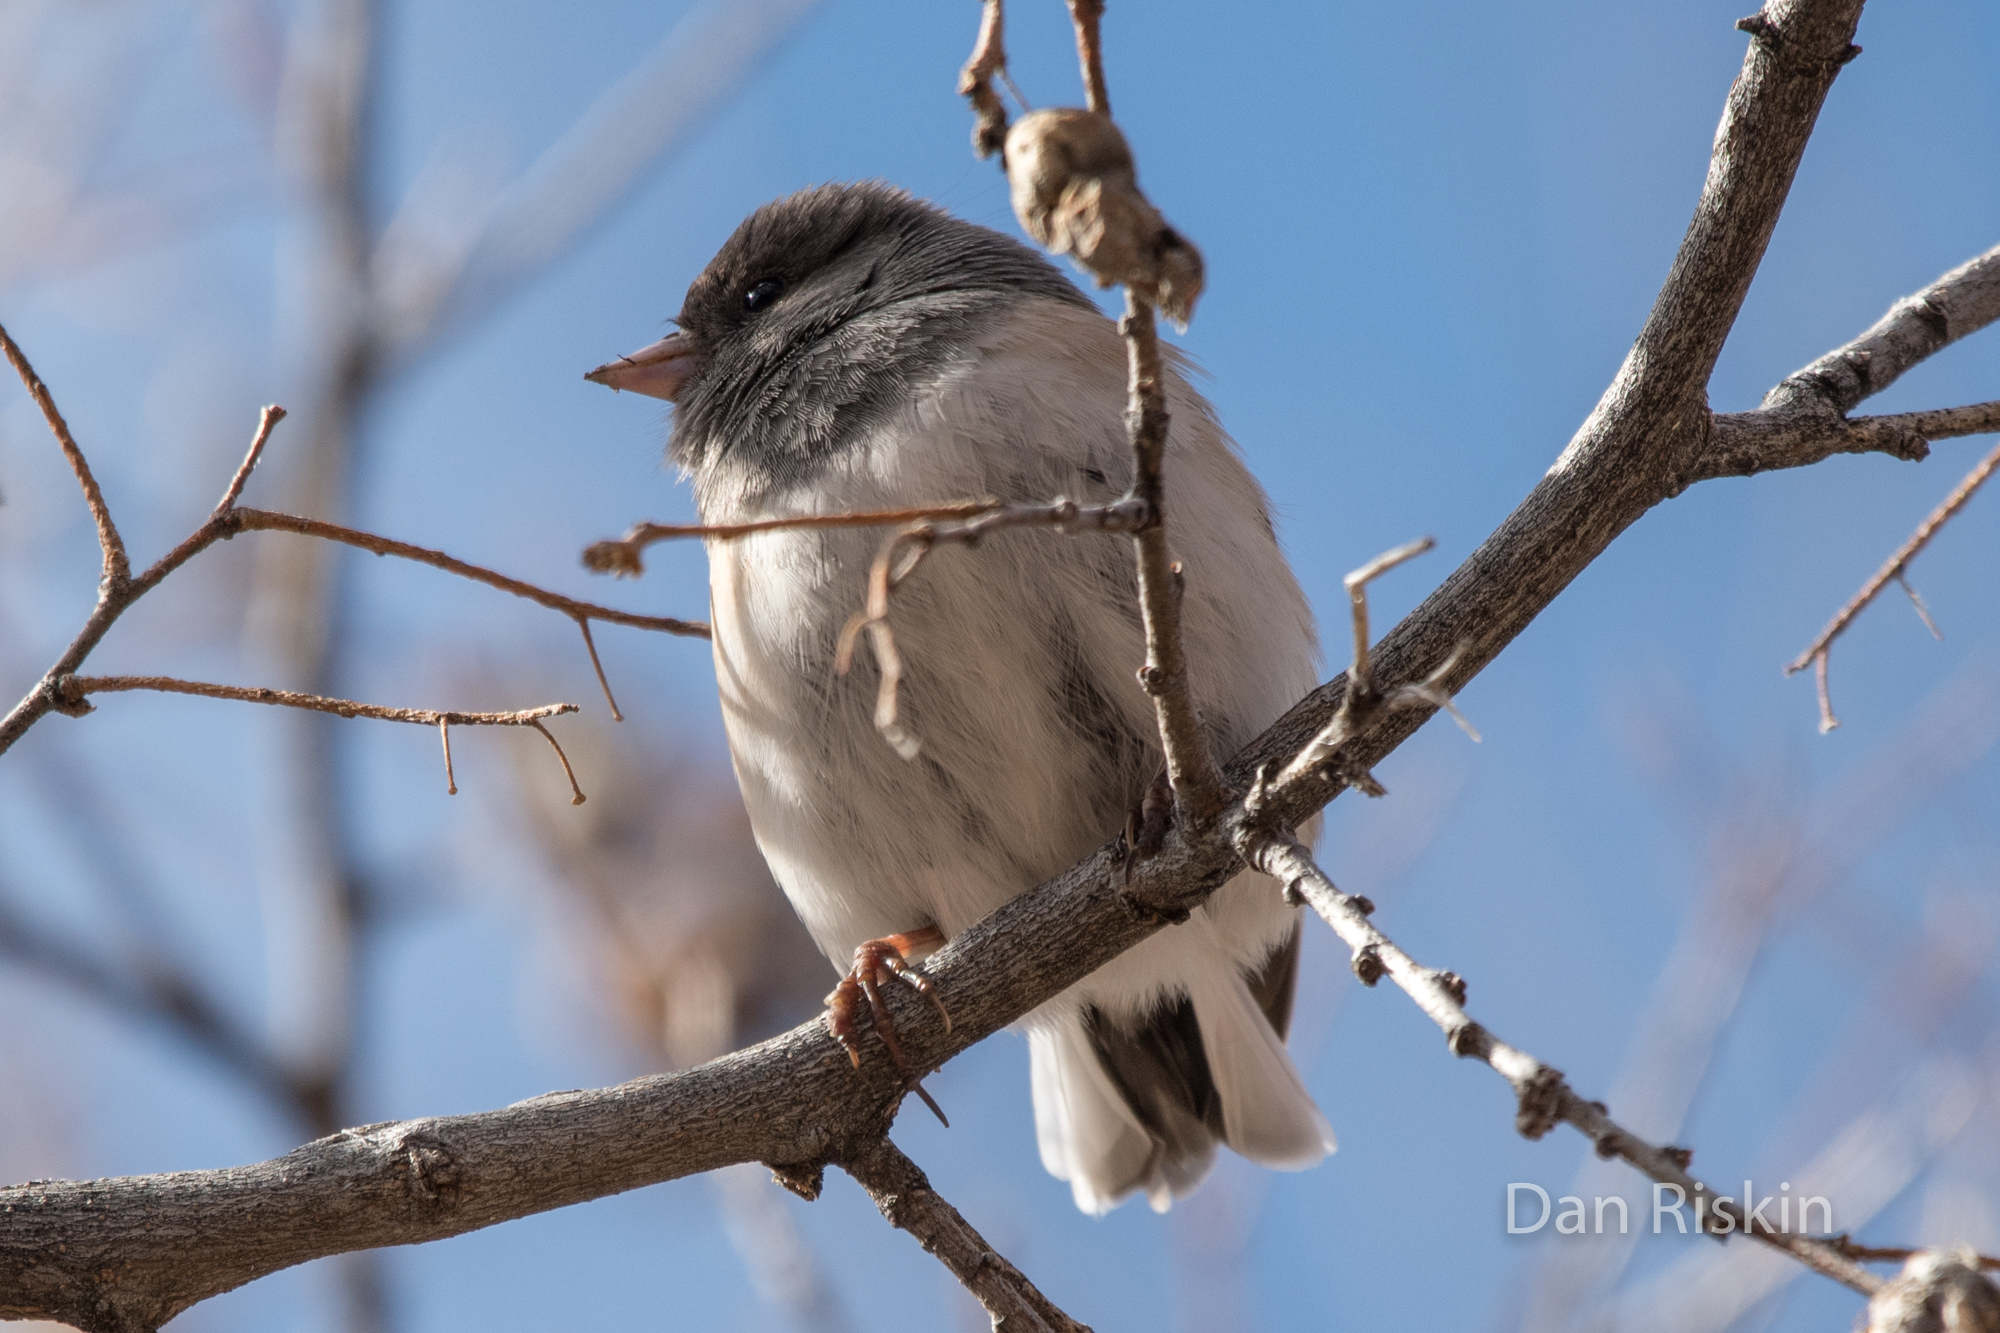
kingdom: Animalia
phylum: Chordata
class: Aves
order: Passeriformes
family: Passerellidae
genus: Junco
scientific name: Junco hyemalis
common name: Dark-eyed junco
